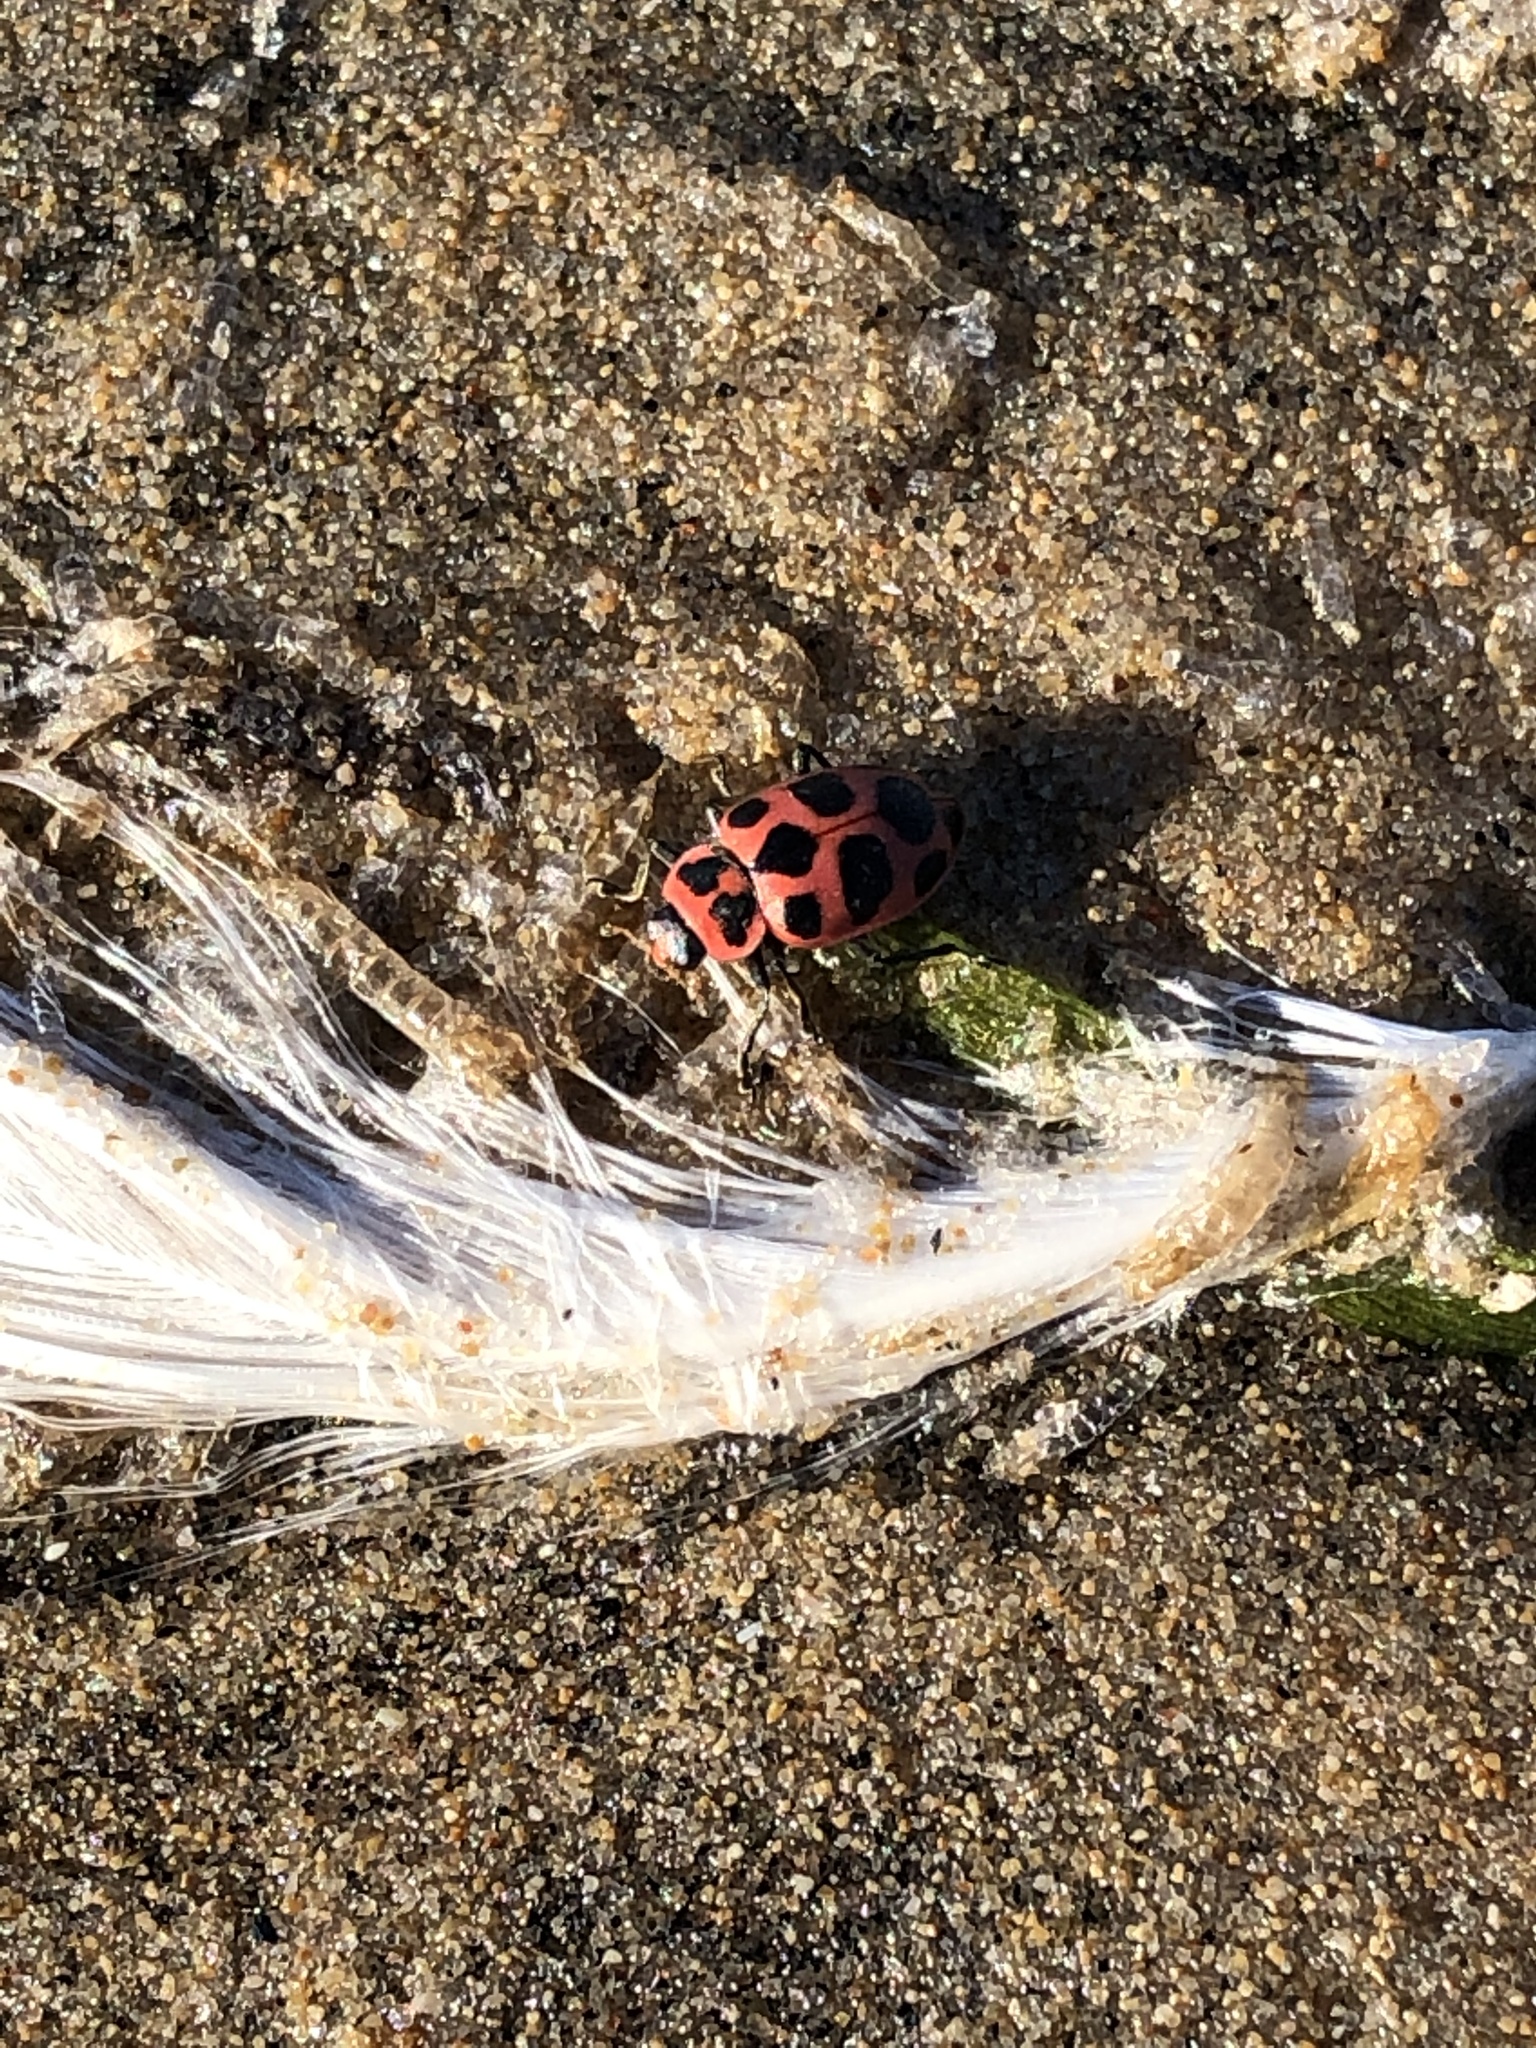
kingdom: Animalia
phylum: Arthropoda
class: Insecta
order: Coleoptera
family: Coccinellidae
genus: Coleomegilla
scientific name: Coleomegilla maculata
